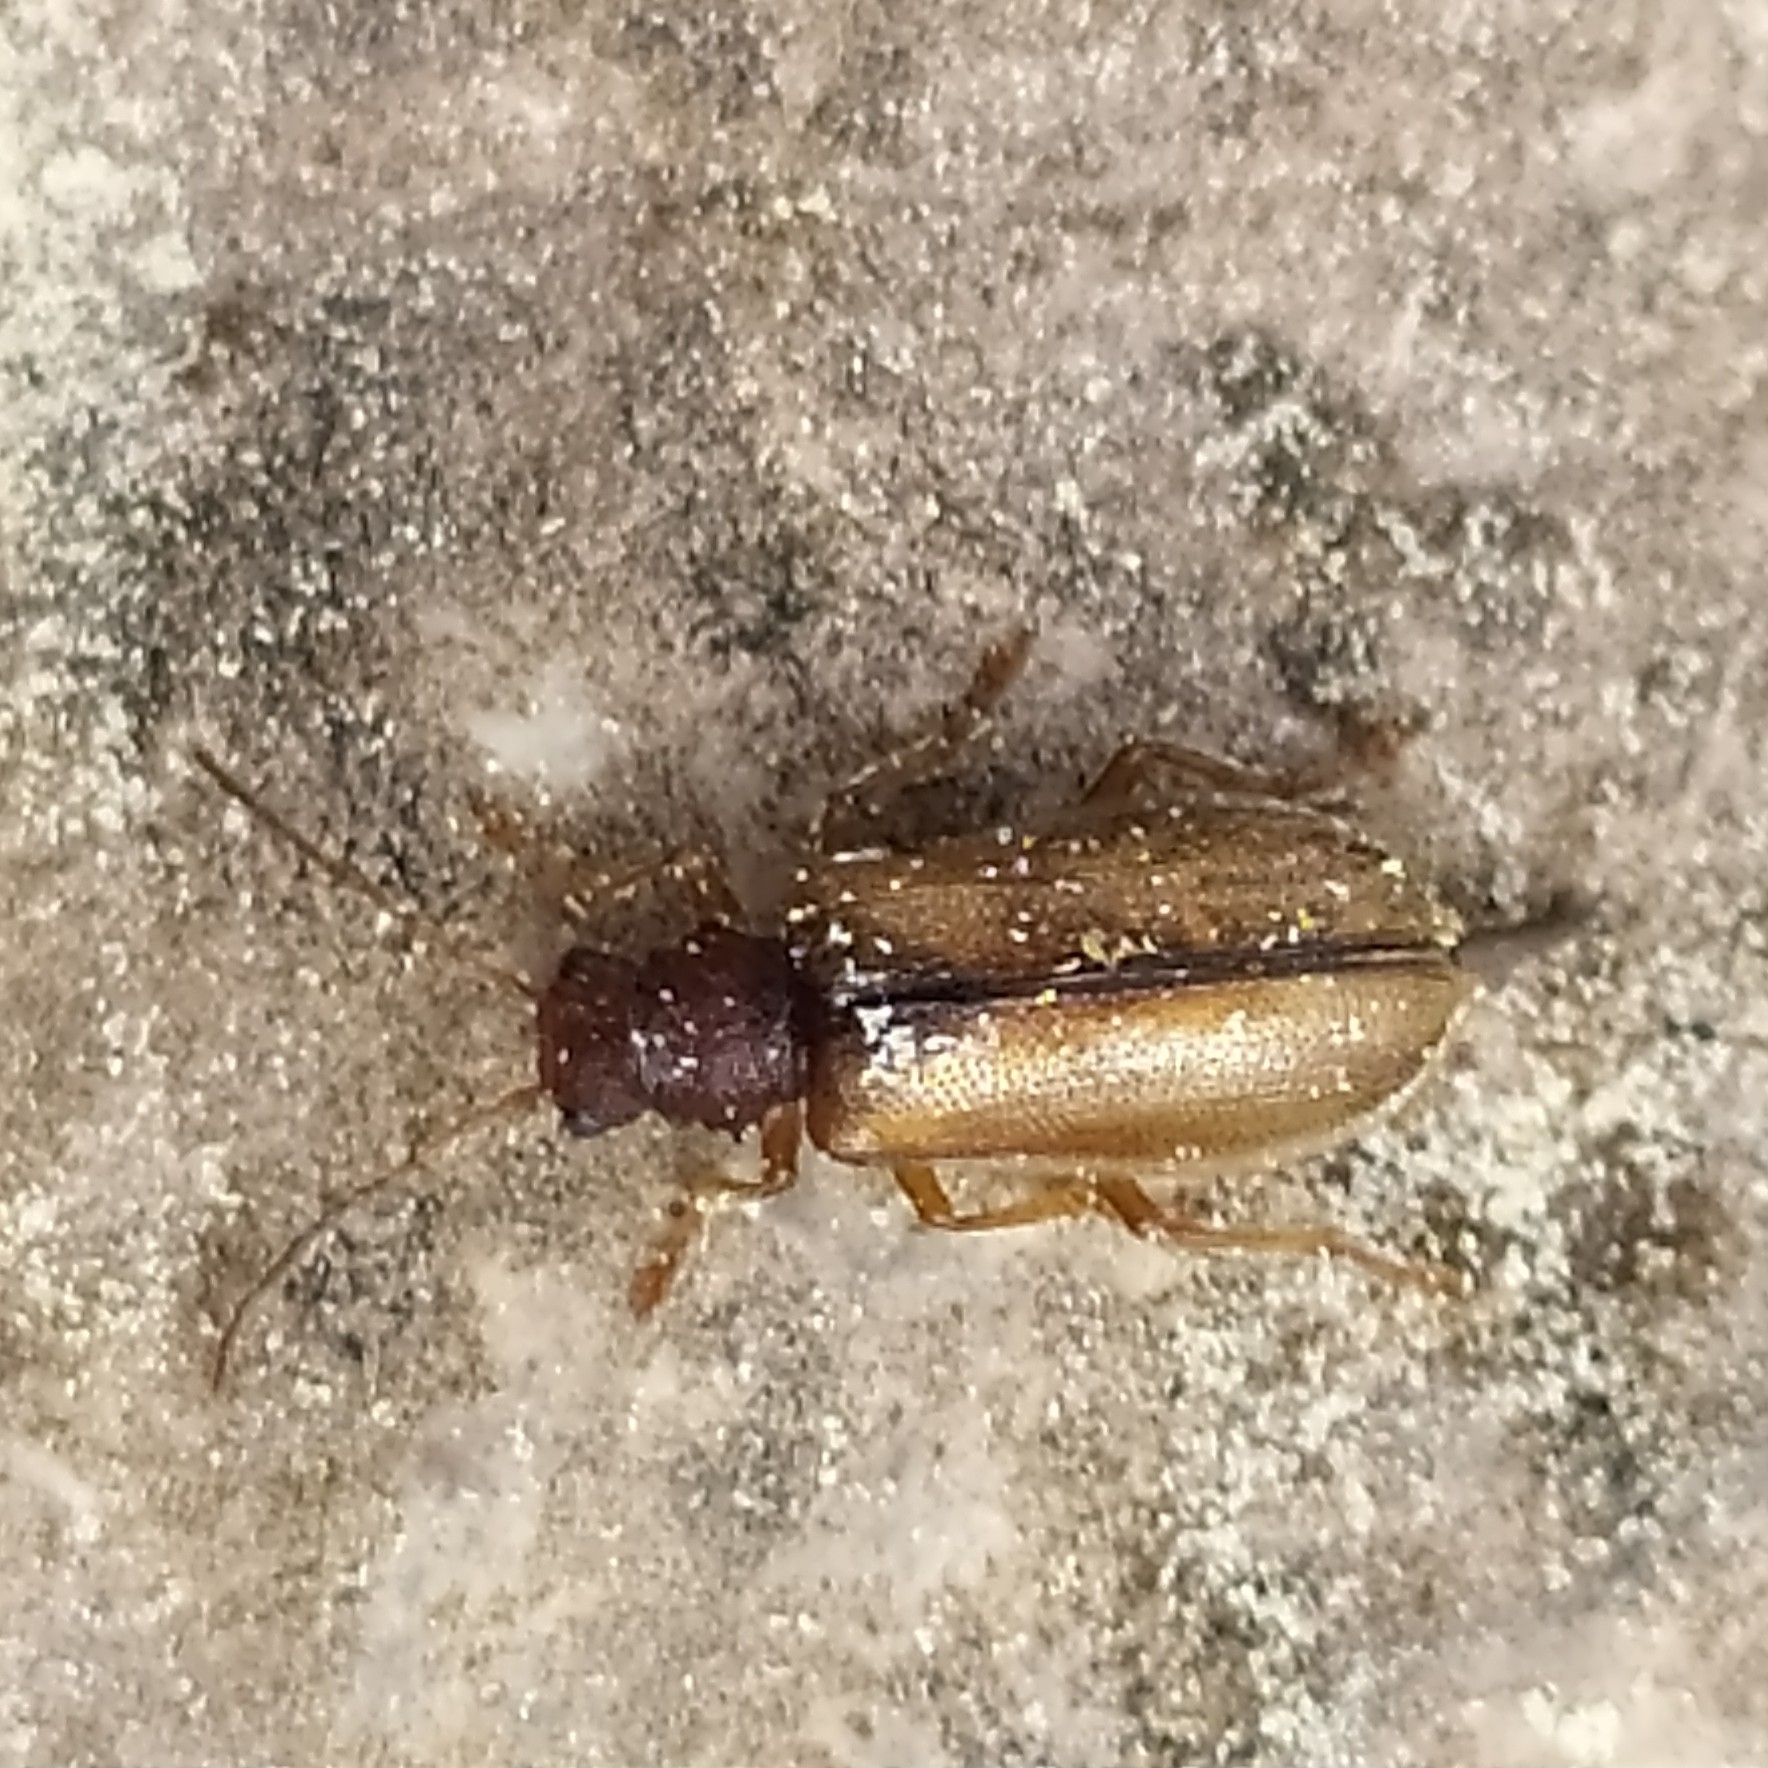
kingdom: Animalia
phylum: Arthropoda
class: Insecta
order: Coleoptera
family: Chrysomelidae
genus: Syneta
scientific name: Syneta betulae
